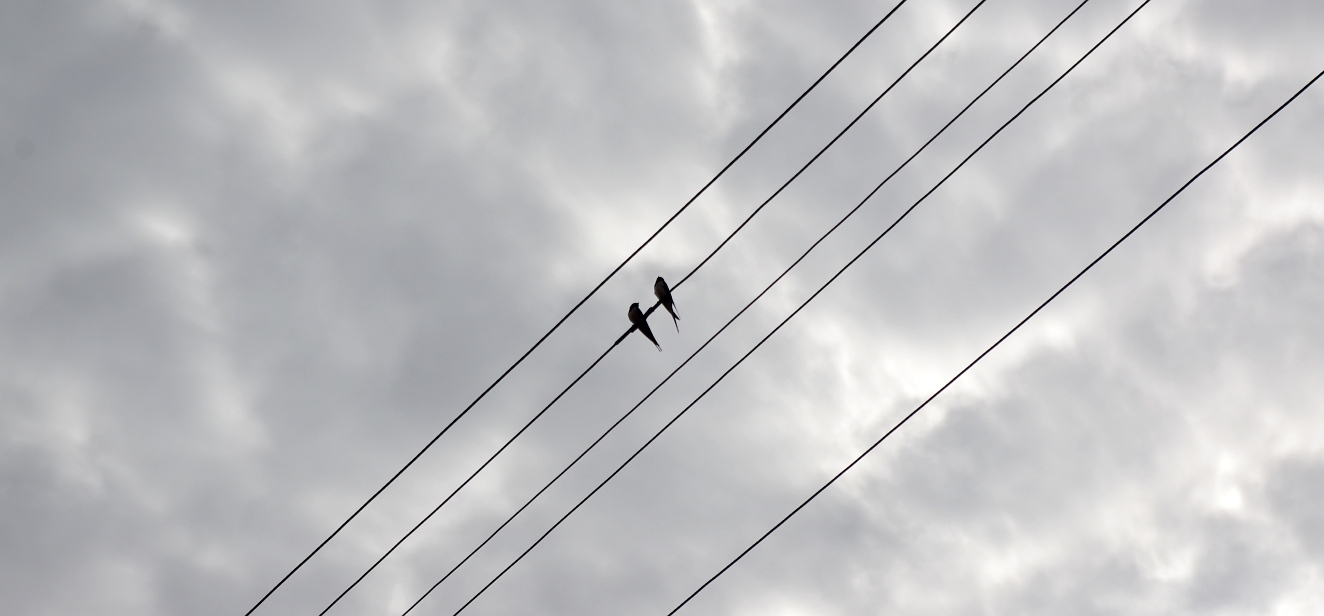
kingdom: Animalia
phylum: Chordata
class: Aves
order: Passeriformes
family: Hirundinidae
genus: Hirundo
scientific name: Hirundo rustica
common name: Barn swallow
